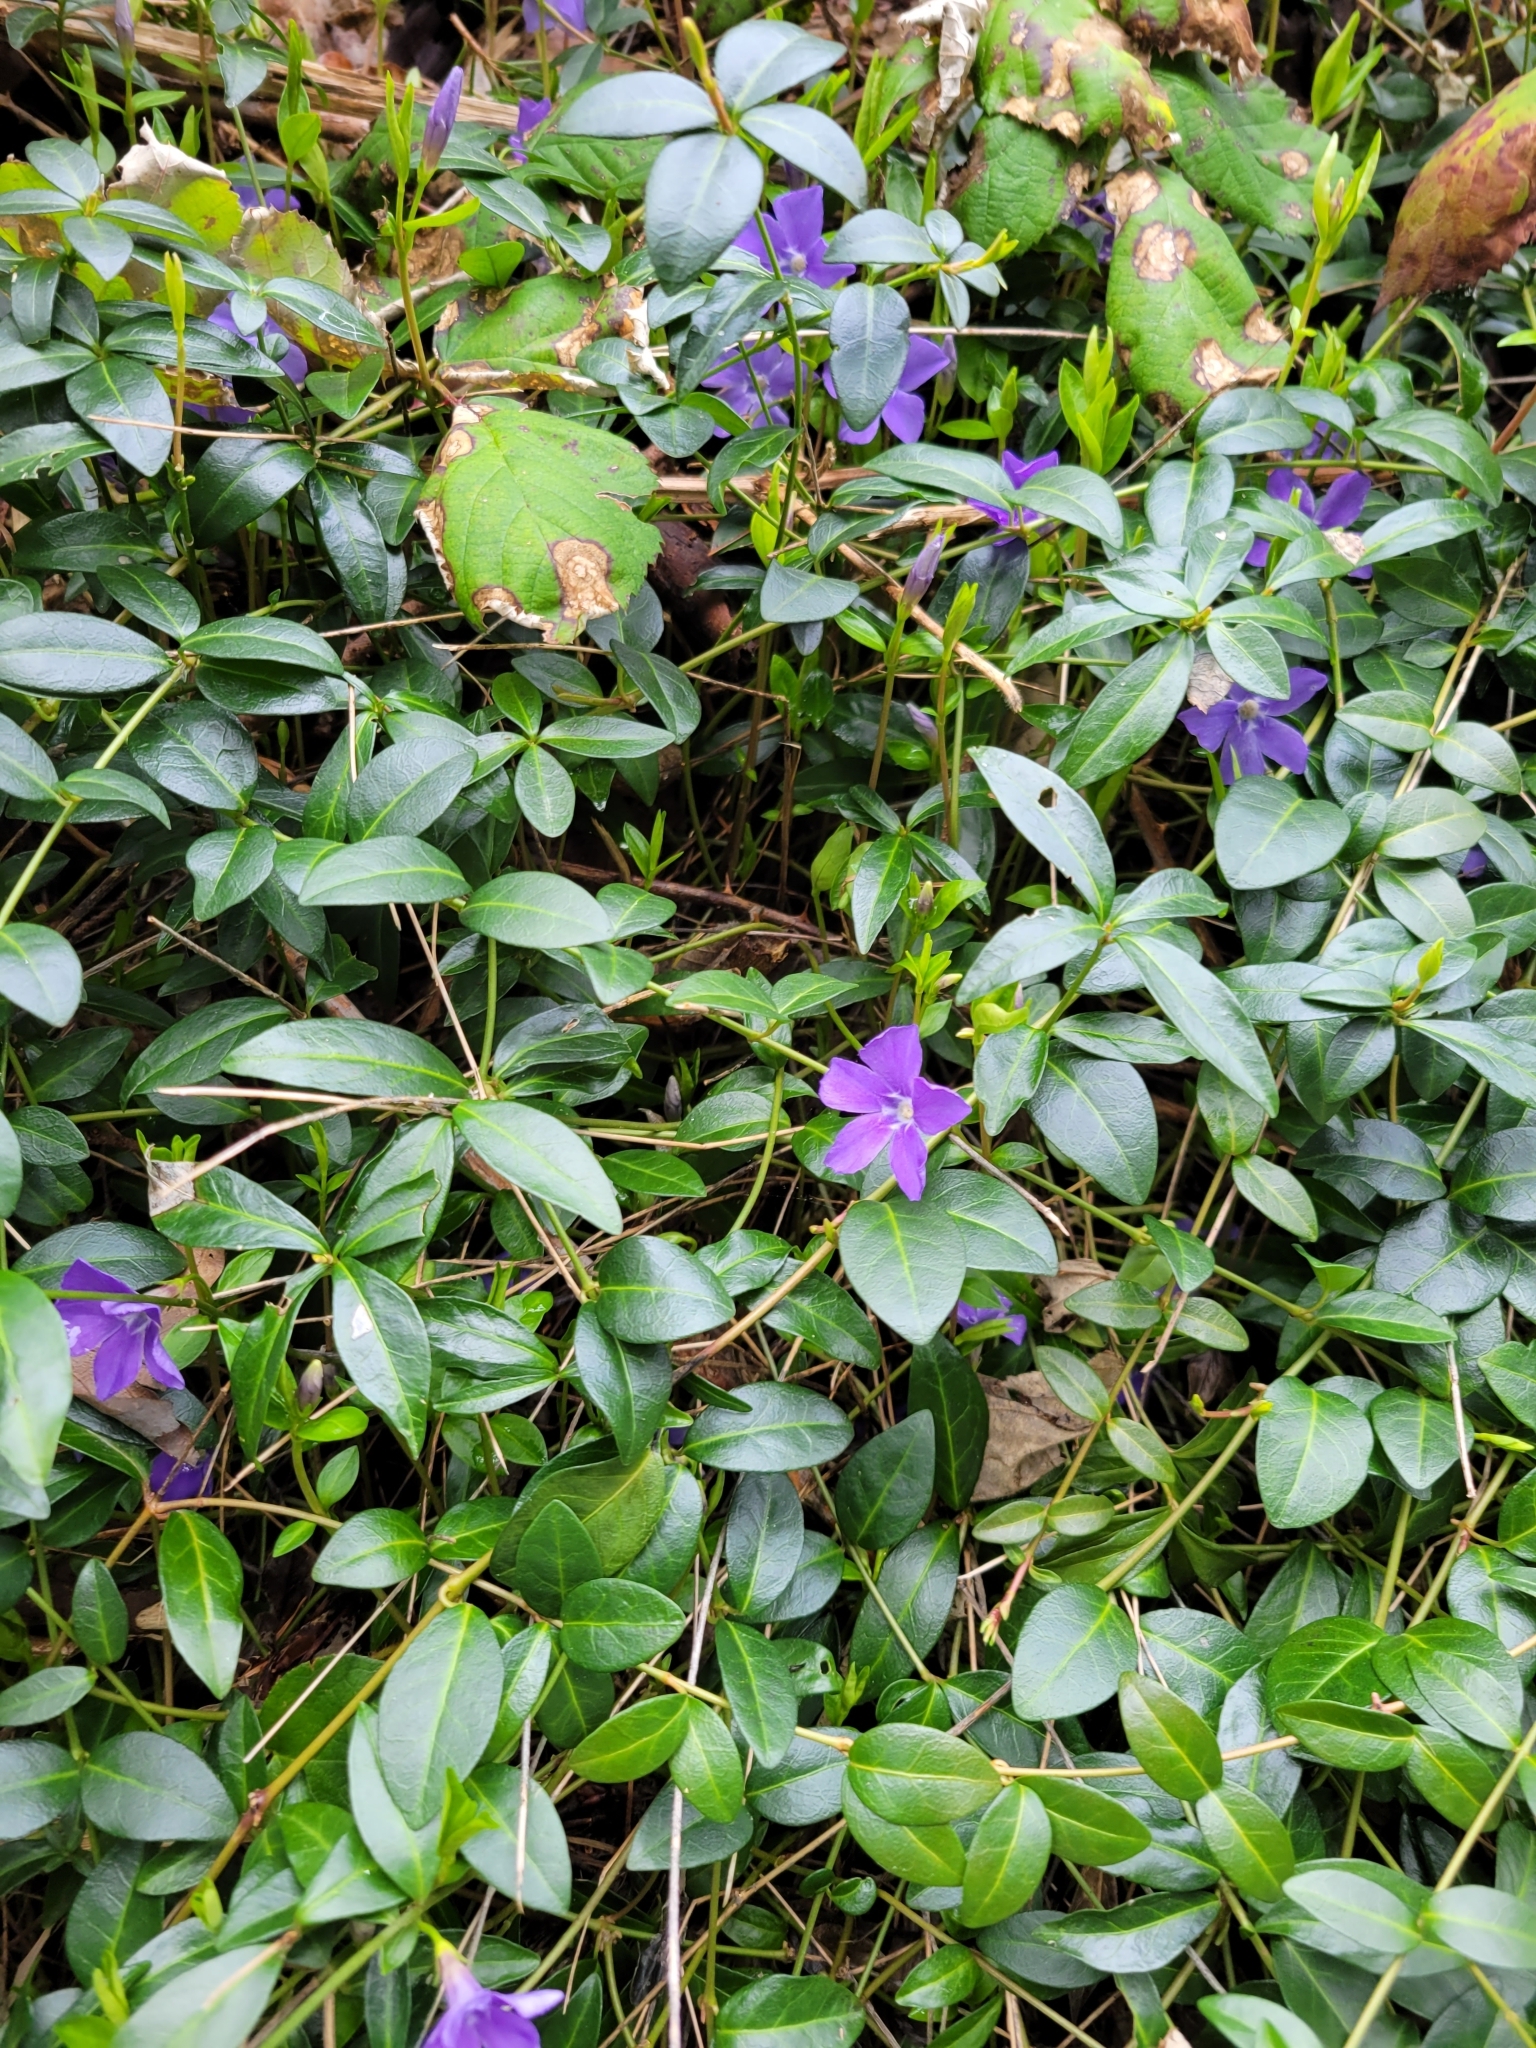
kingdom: Plantae
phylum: Tracheophyta
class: Magnoliopsida
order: Gentianales
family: Apocynaceae
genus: Vinca
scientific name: Vinca minor
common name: Lesser periwinkle
